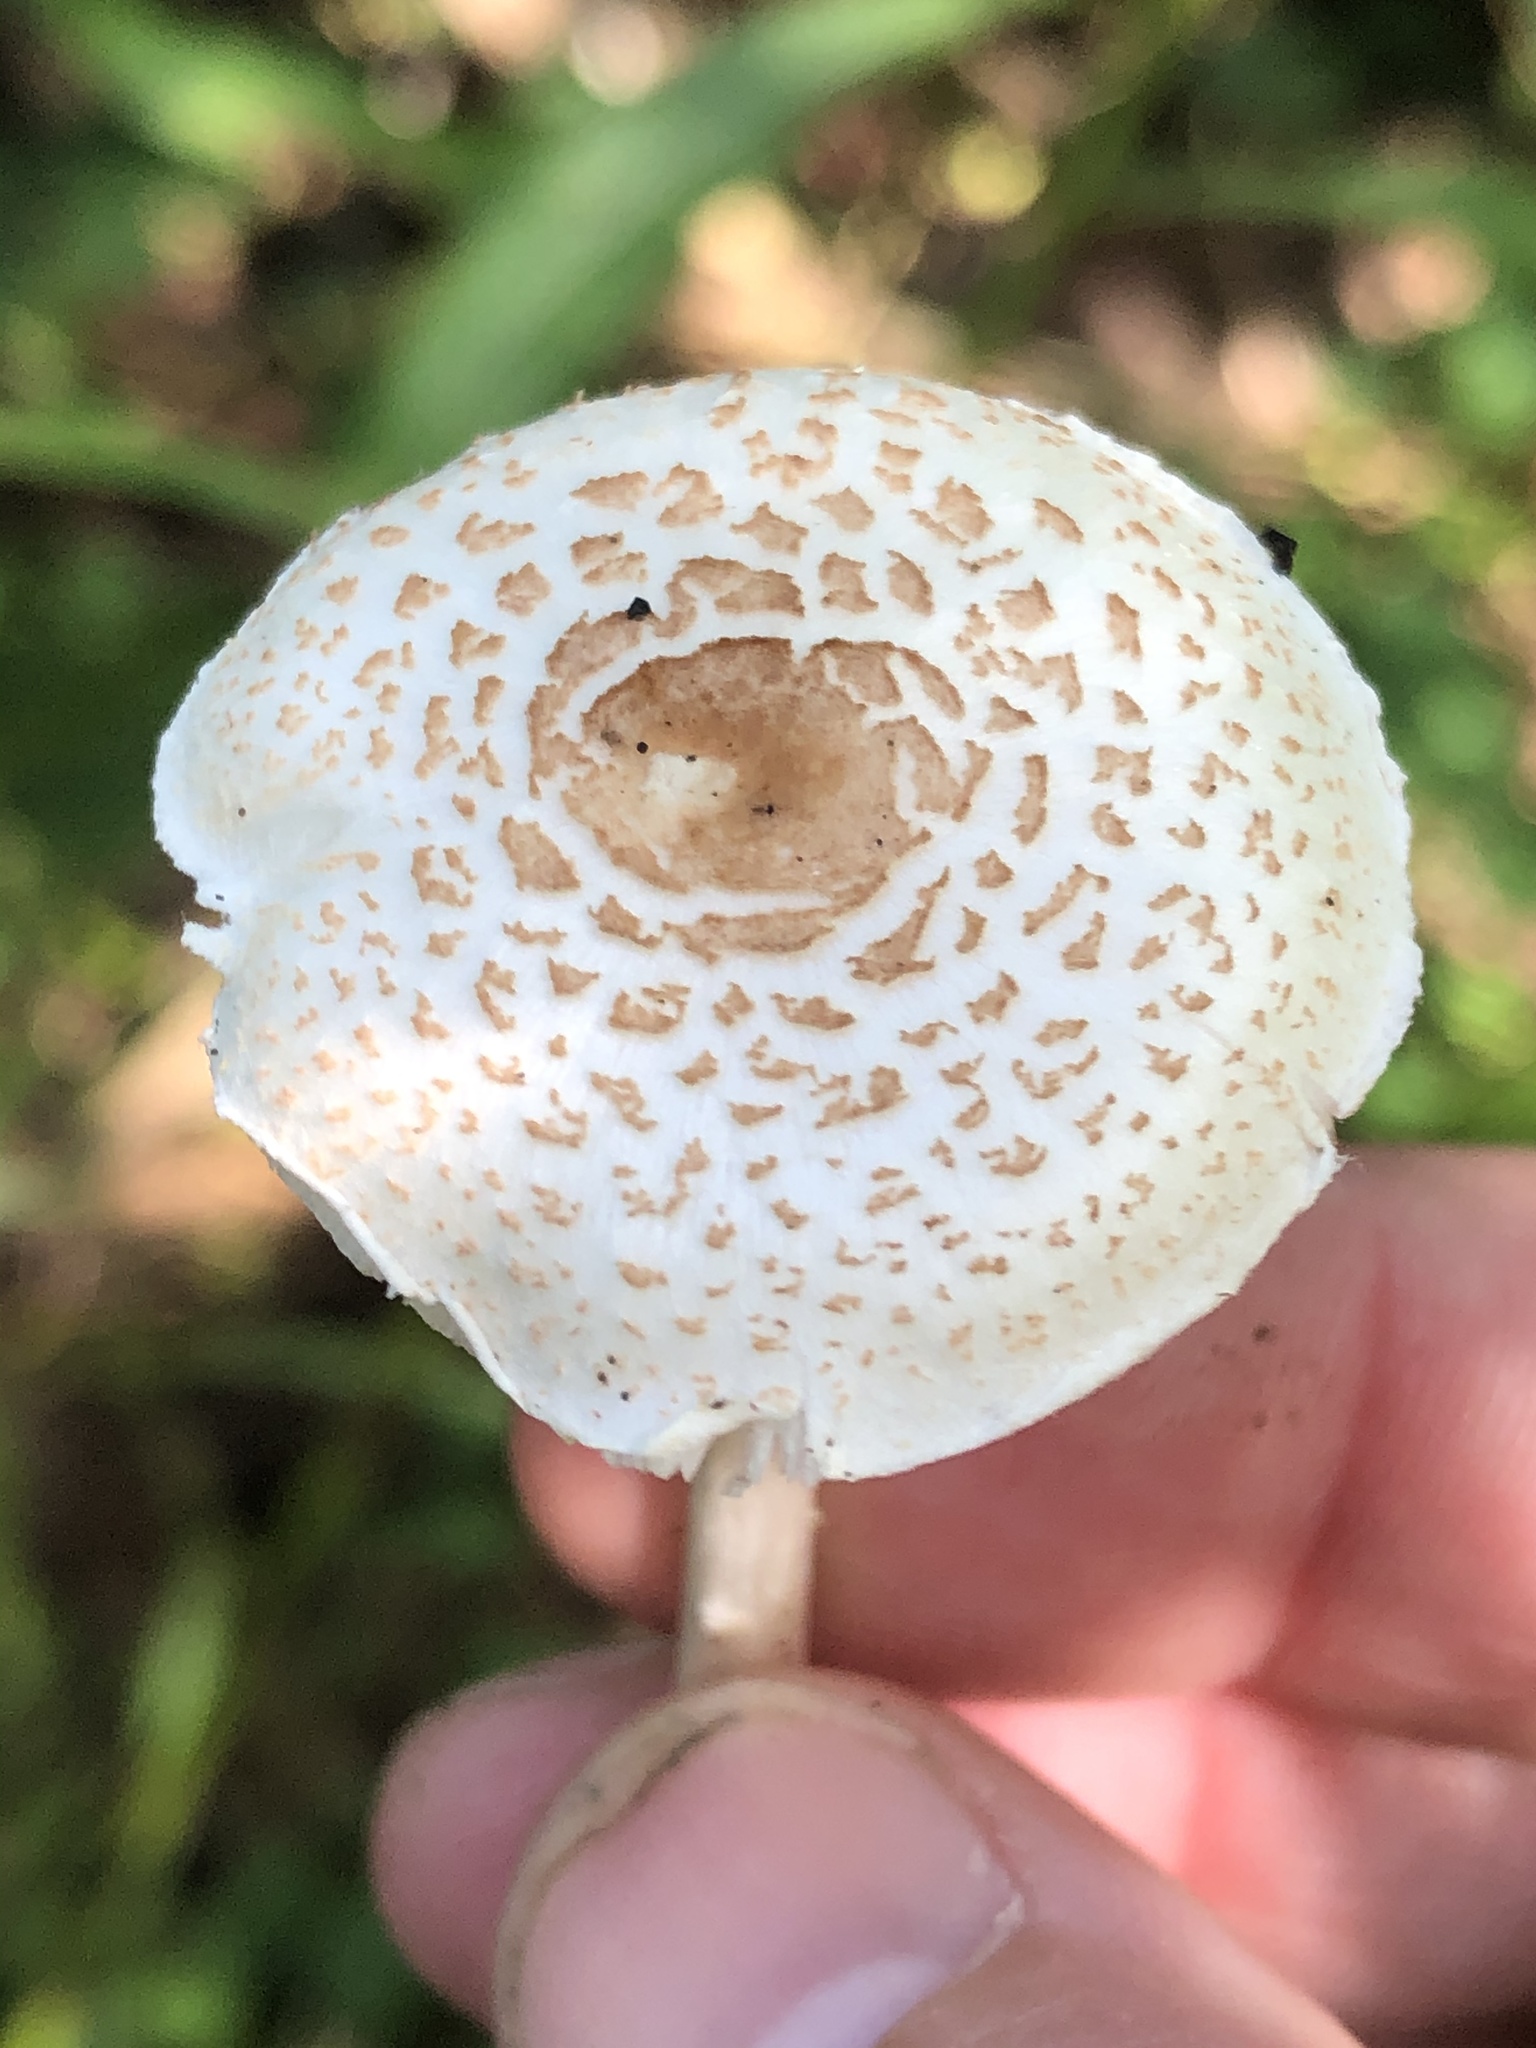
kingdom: Fungi
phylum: Basidiomycota
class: Agaricomycetes
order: Agaricales
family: Agaricaceae
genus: Lepiota
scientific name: Lepiota cristata
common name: Stinking dapperling
